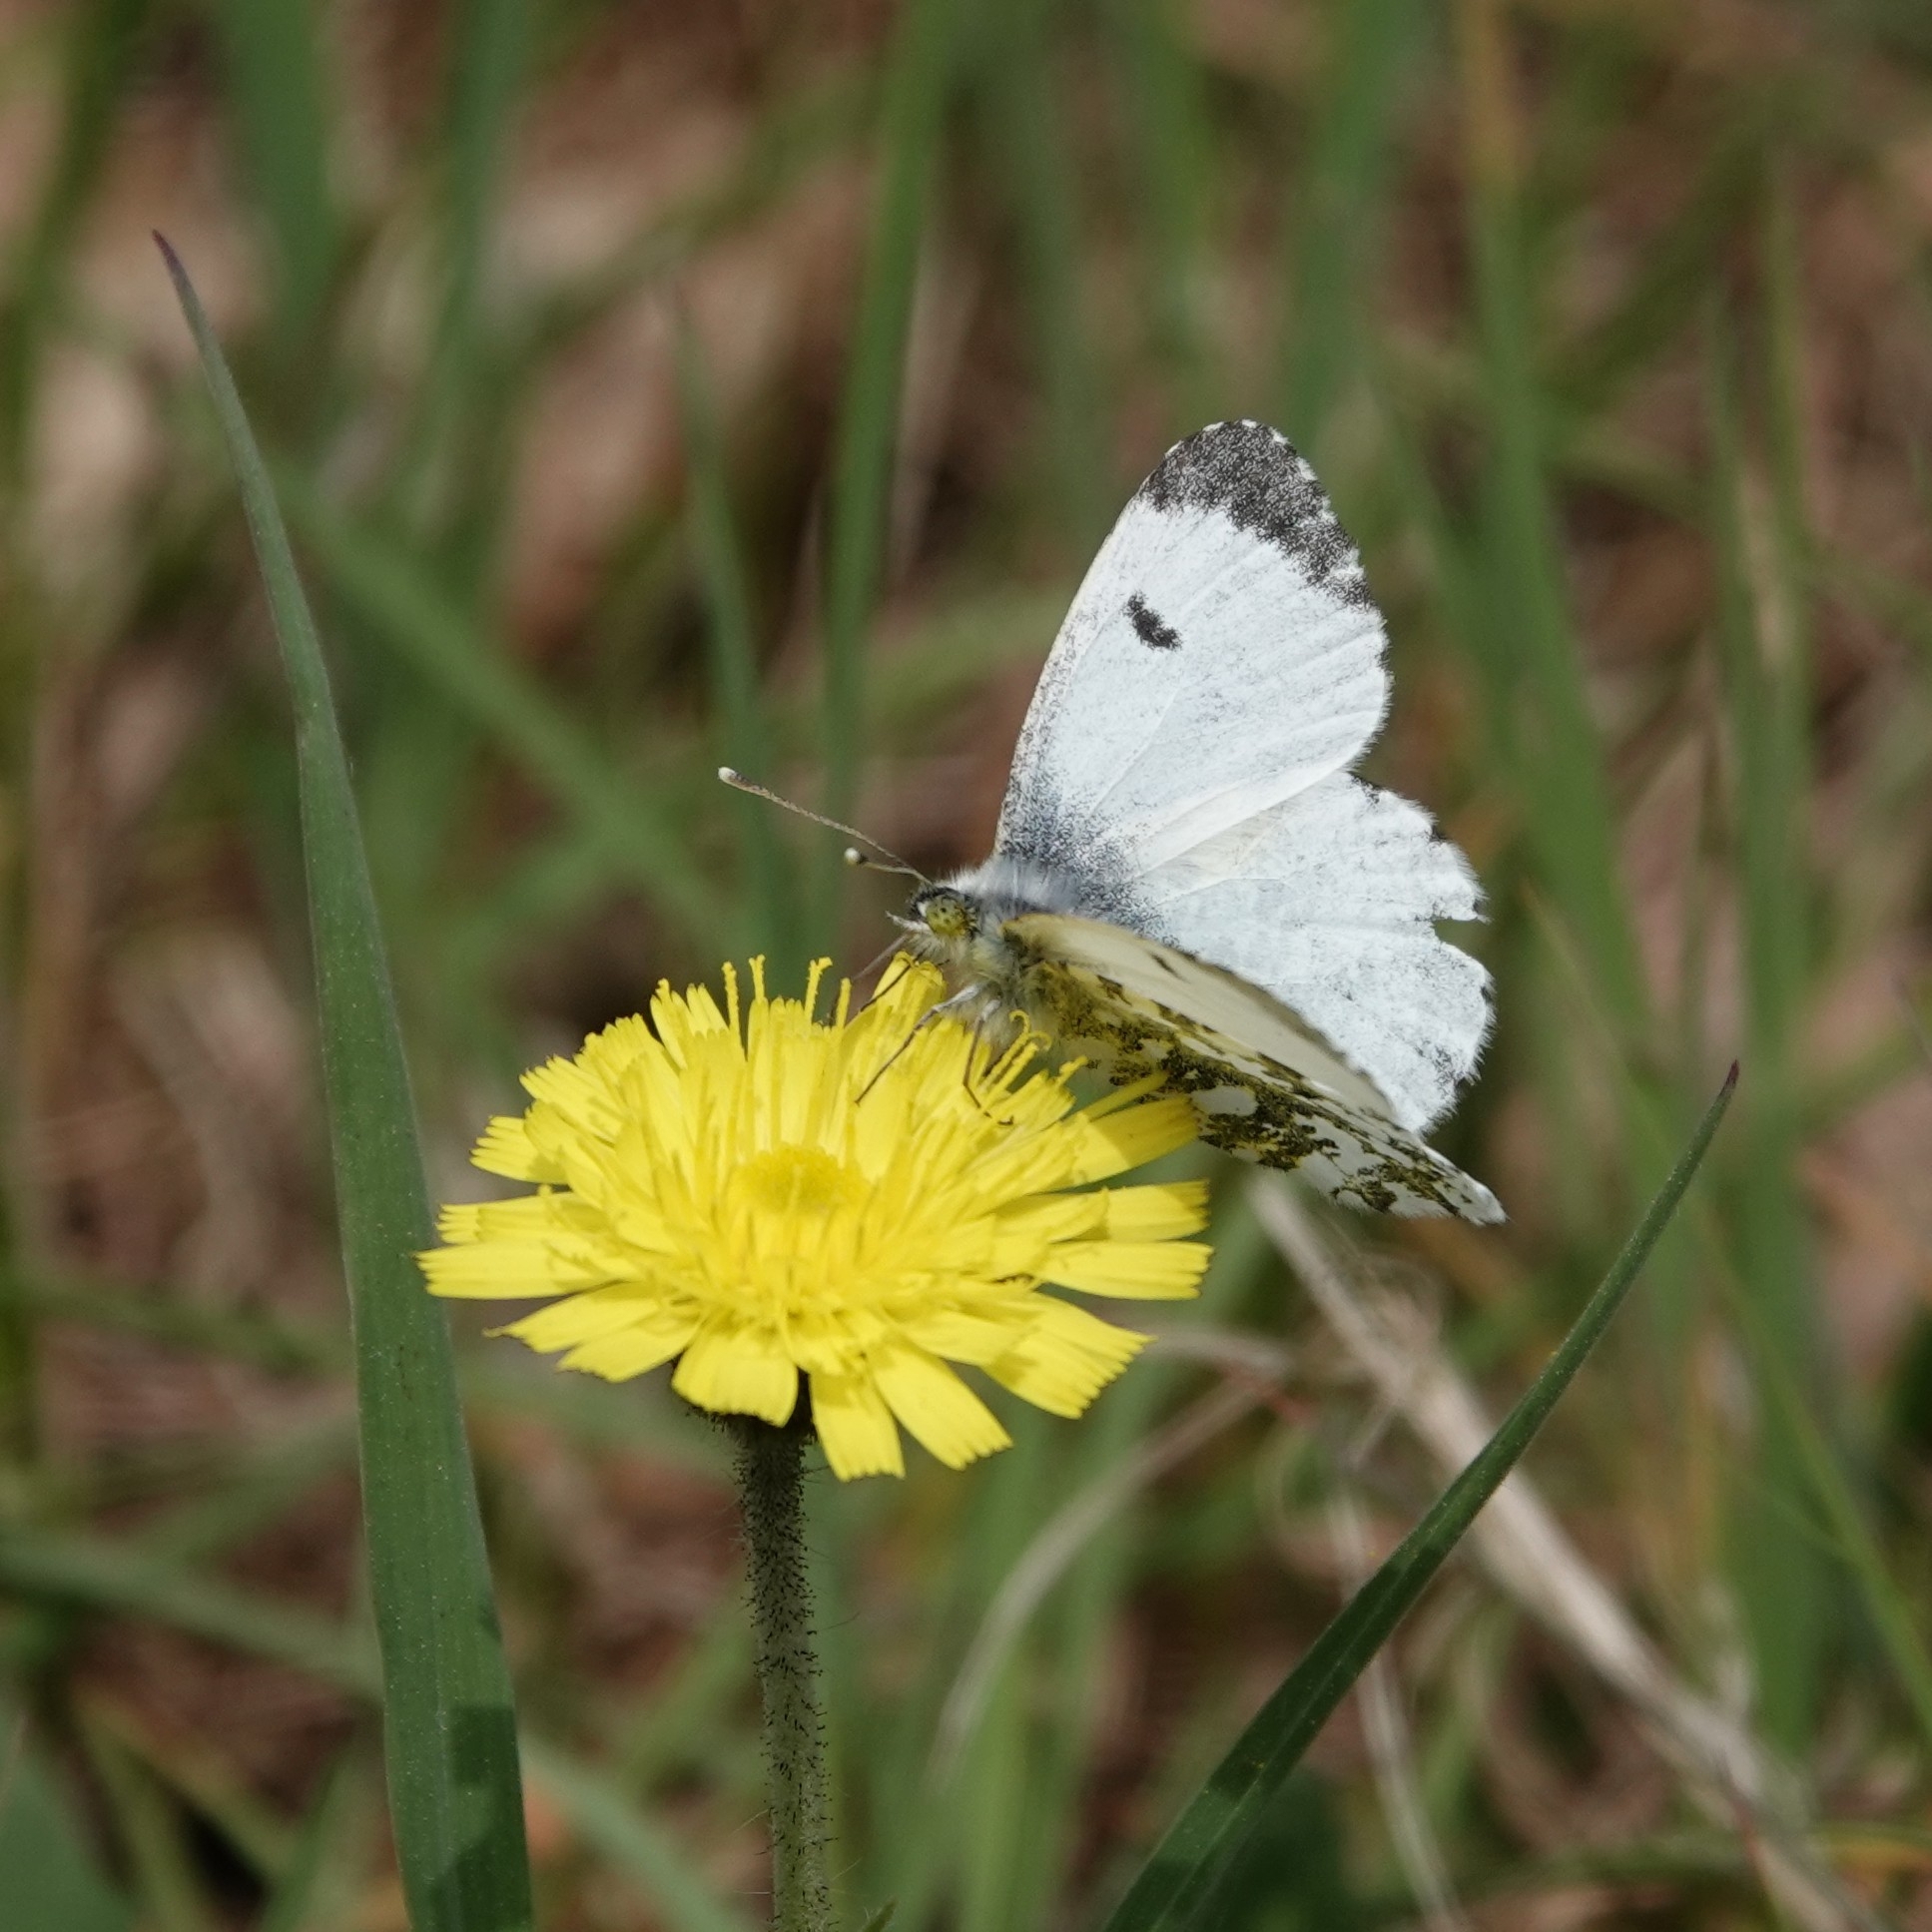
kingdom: Animalia
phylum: Arthropoda
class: Insecta
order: Lepidoptera
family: Pieridae
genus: Anthocharis
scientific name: Anthocharis cardamines
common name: Orange-tip
